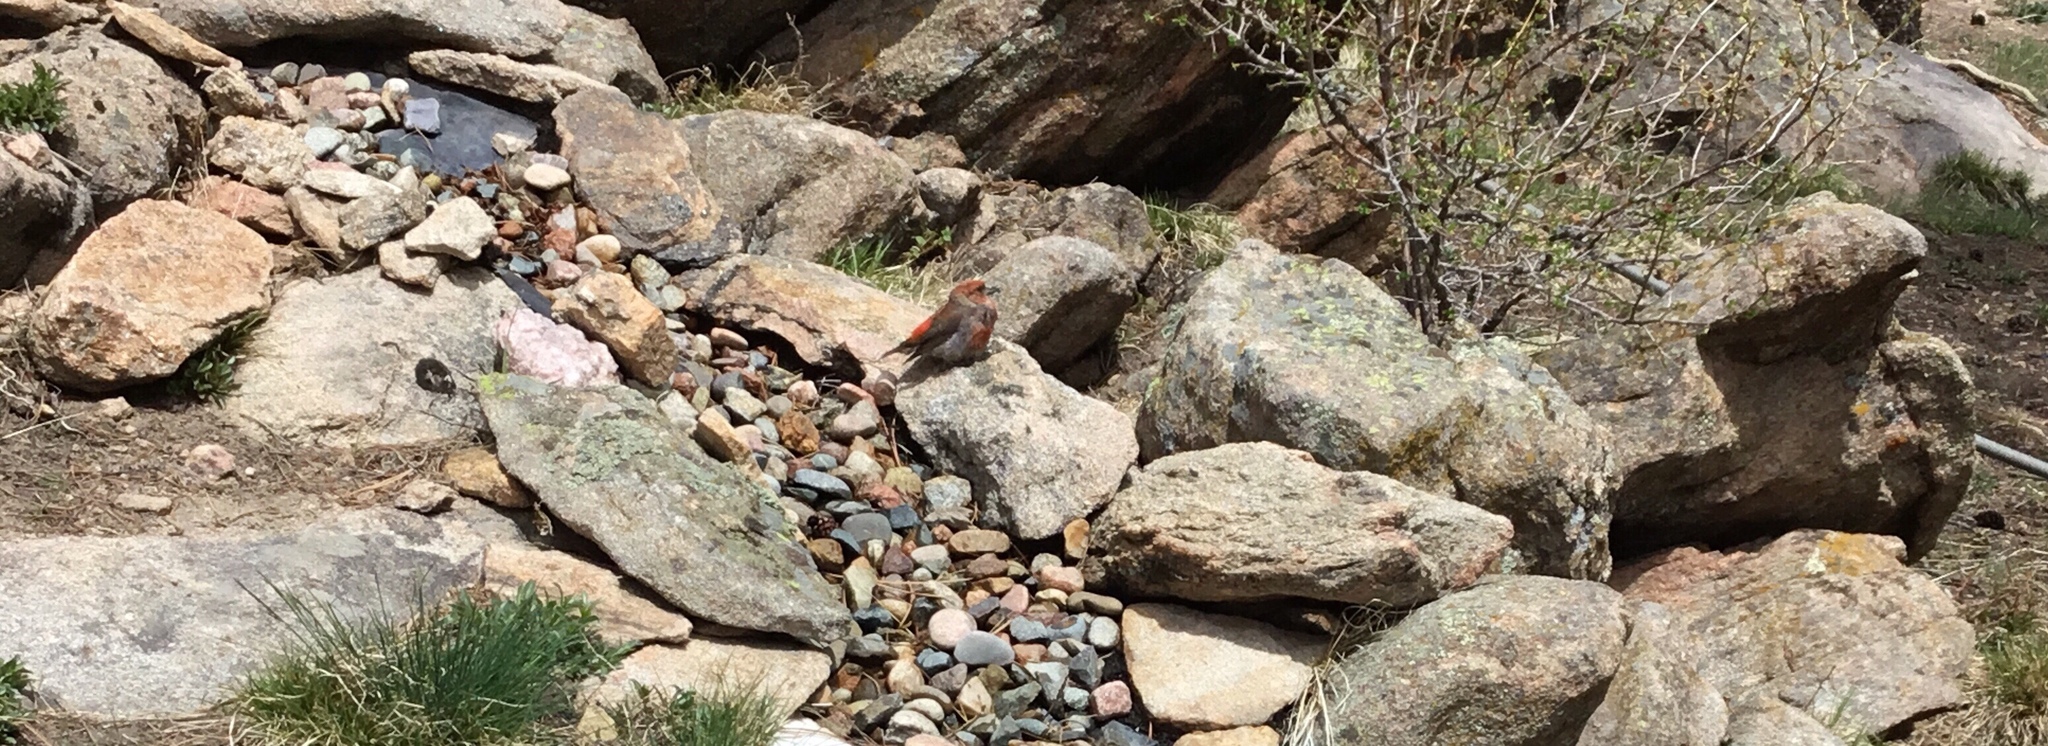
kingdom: Animalia
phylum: Chordata
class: Aves
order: Passeriformes
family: Fringillidae
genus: Loxia
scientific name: Loxia curvirostra
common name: Red crossbill
